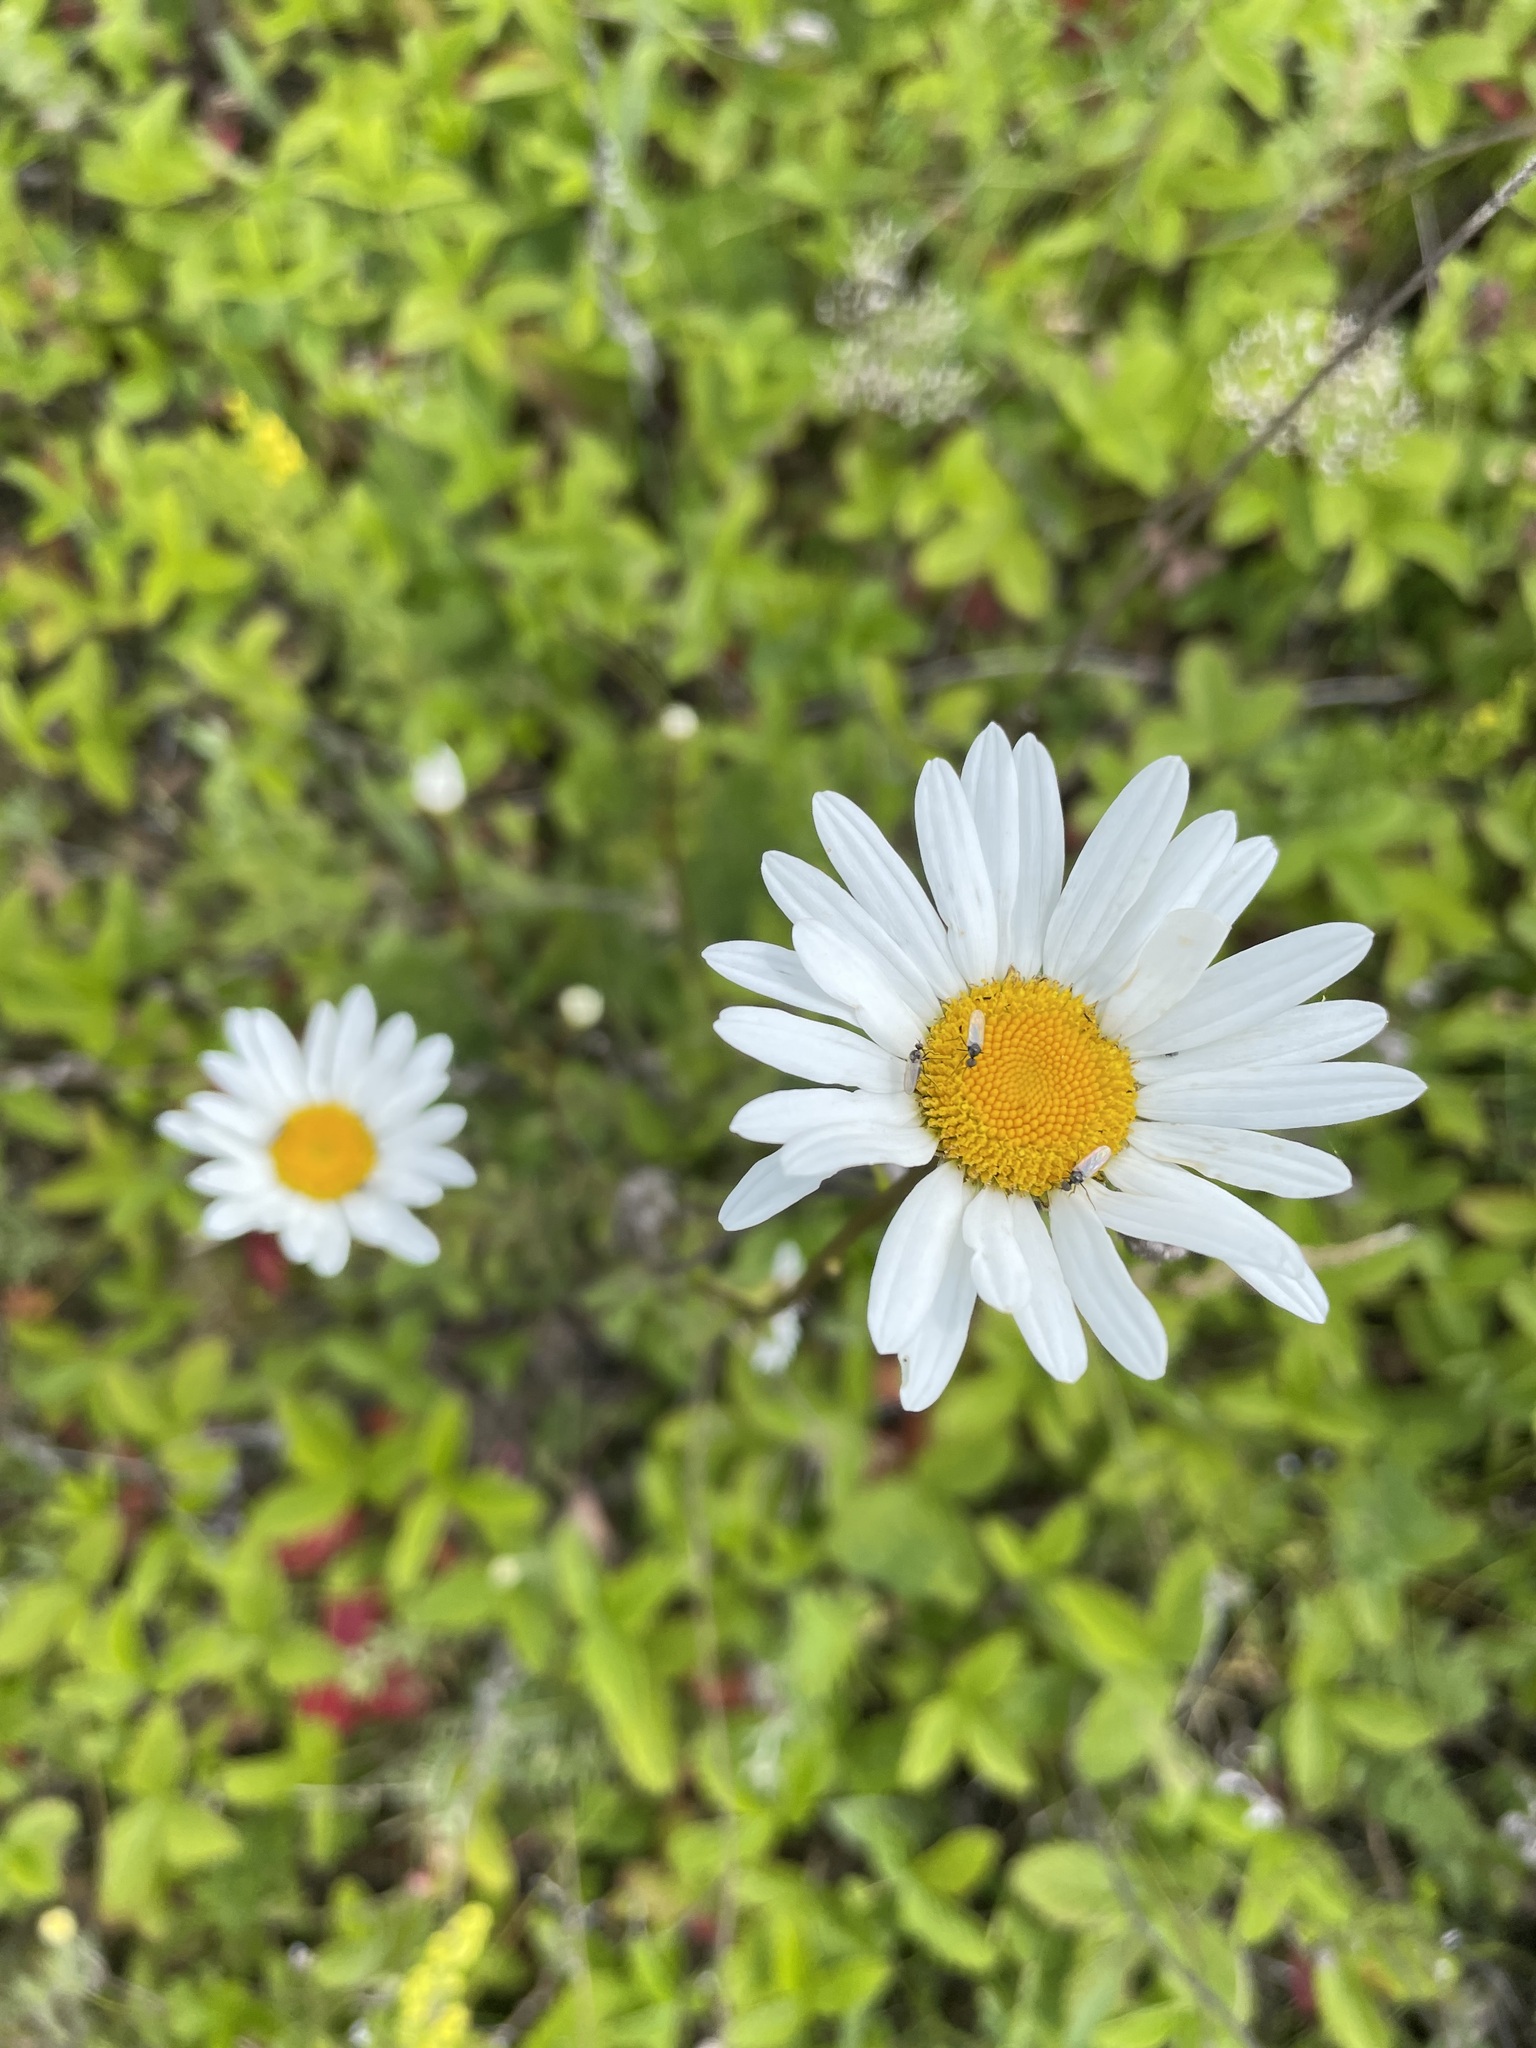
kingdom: Plantae
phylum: Tracheophyta
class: Magnoliopsida
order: Asterales
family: Asteraceae
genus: Leucanthemum
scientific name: Leucanthemum vulgare
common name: Oxeye daisy
